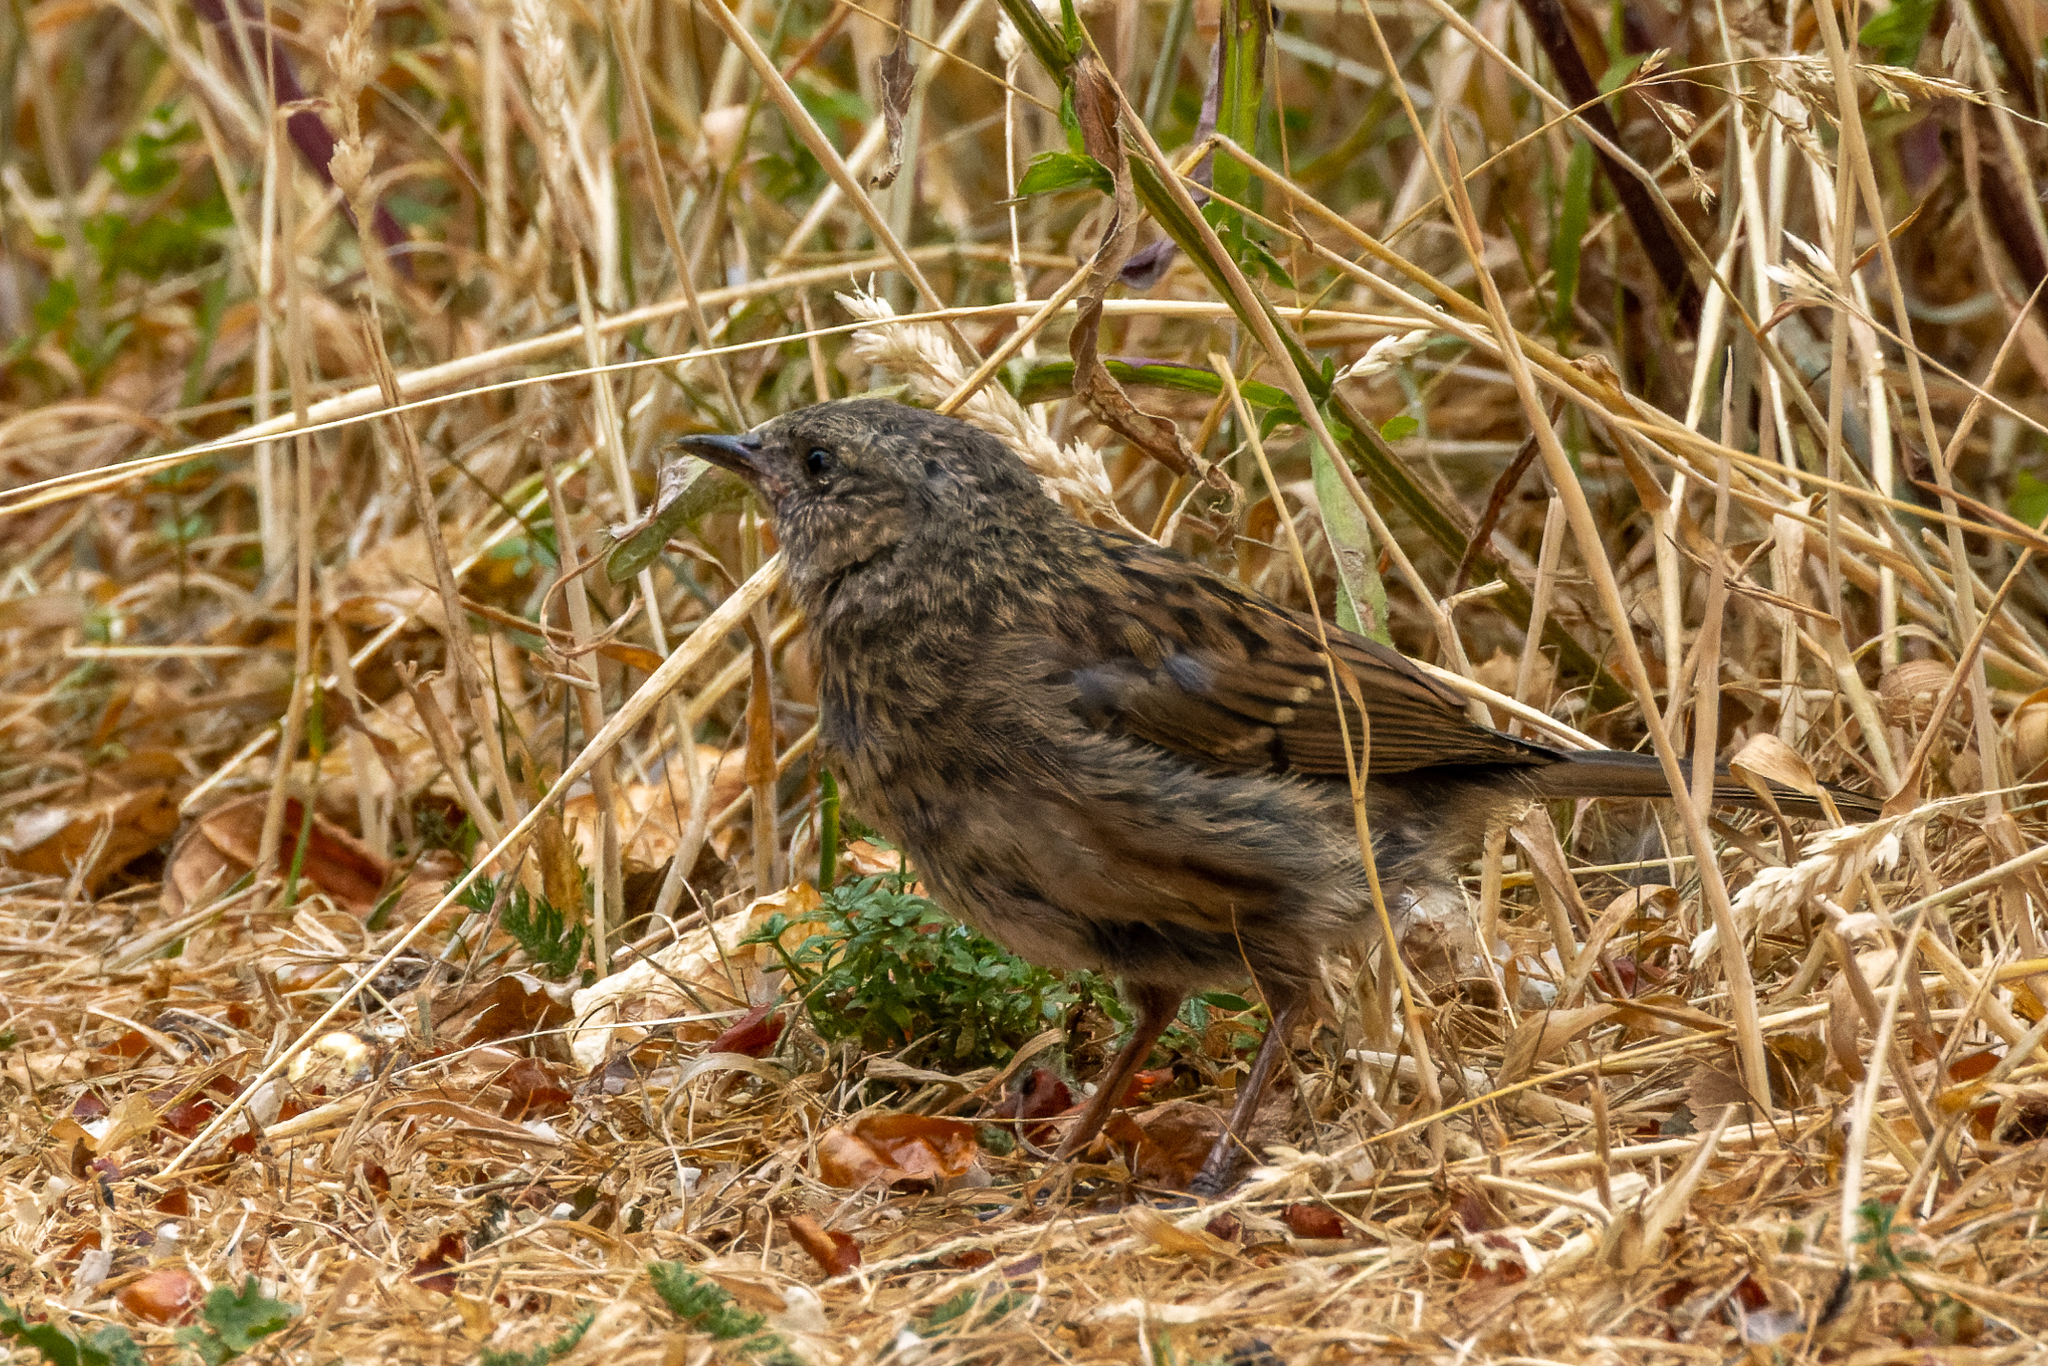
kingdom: Animalia
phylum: Chordata
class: Aves
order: Passeriformes
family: Prunellidae
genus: Prunella
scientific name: Prunella modularis
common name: Dunnock
